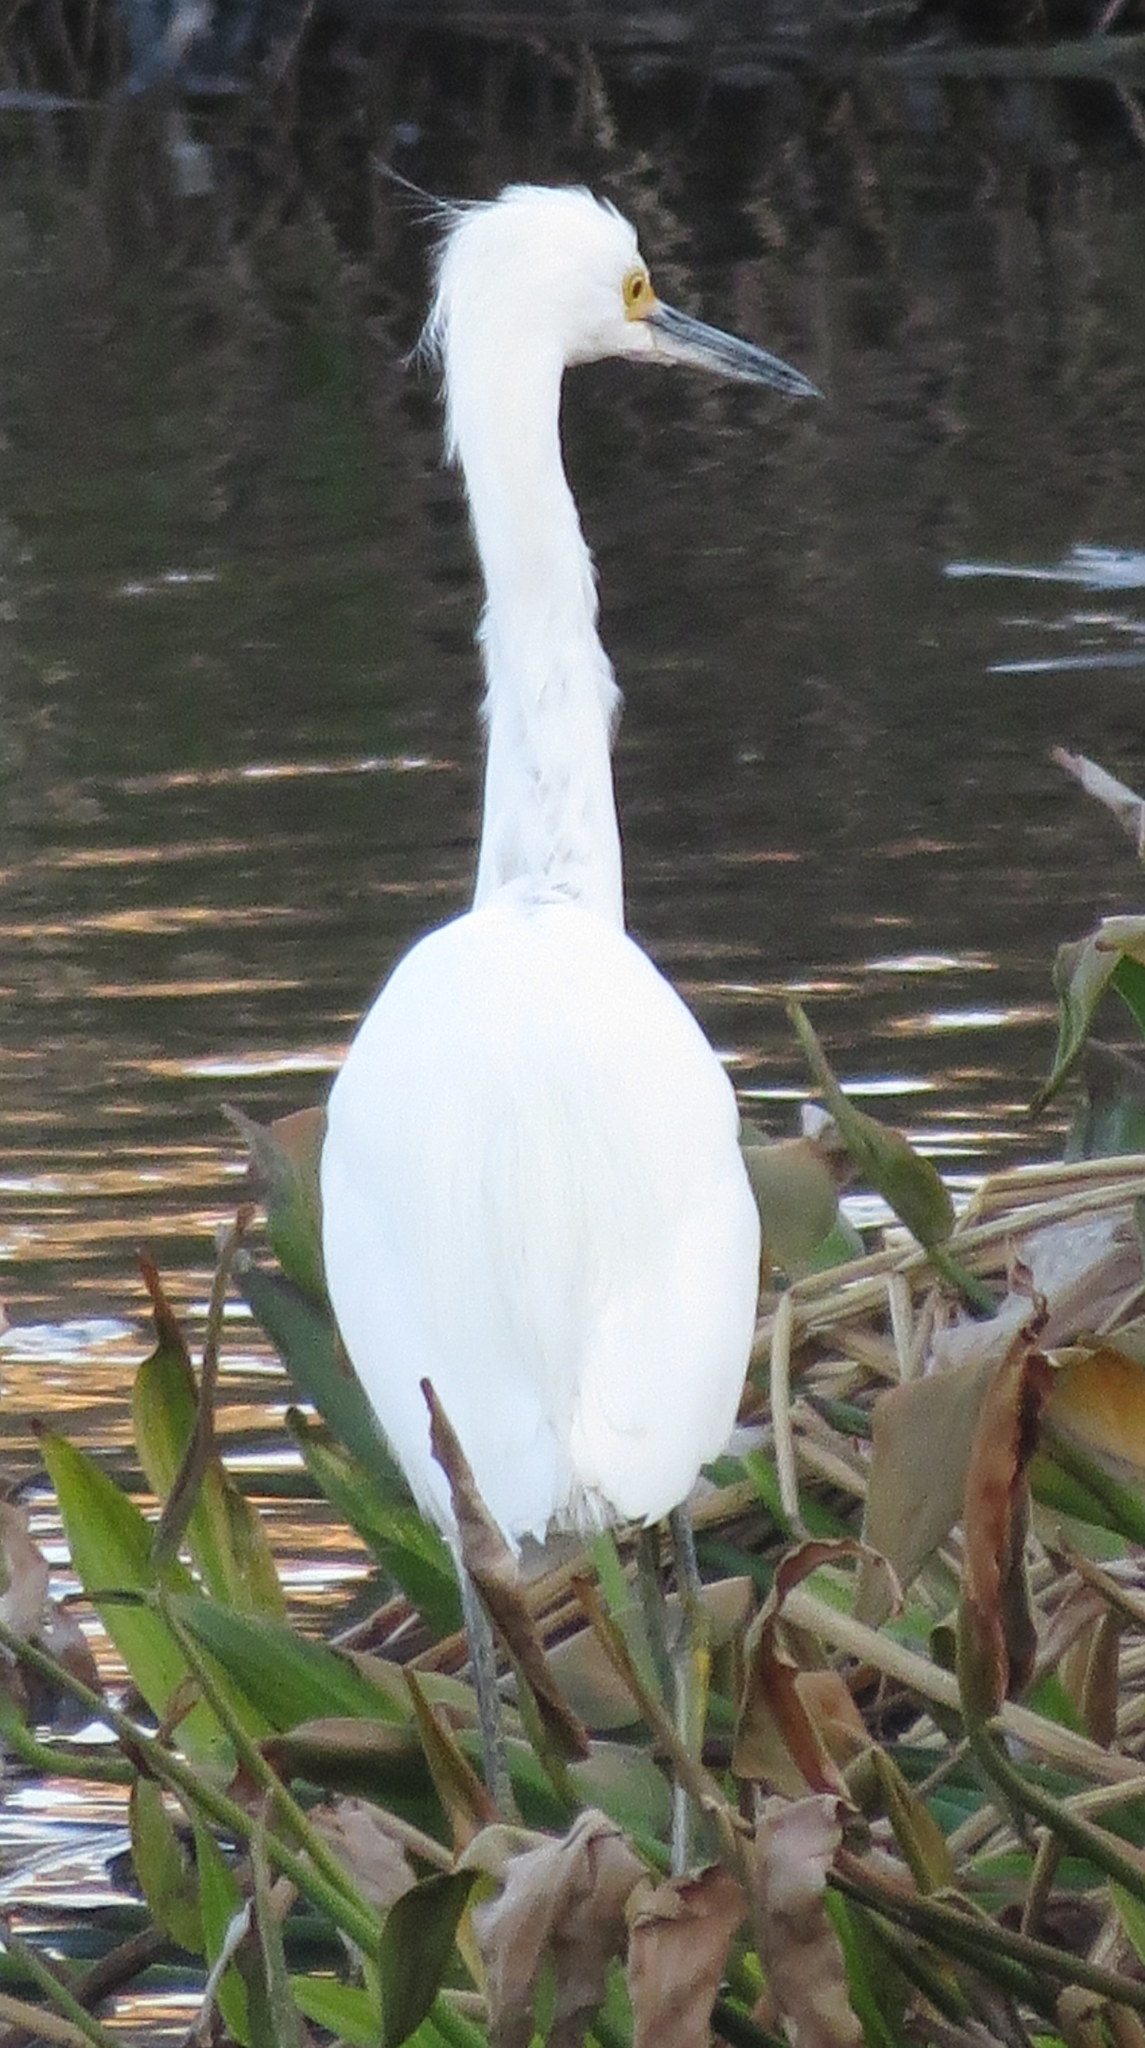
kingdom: Animalia
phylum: Chordata
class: Aves
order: Pelecaniformes
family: Ardeidae
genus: Egretta
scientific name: Egretta thula
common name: Snowy egret
